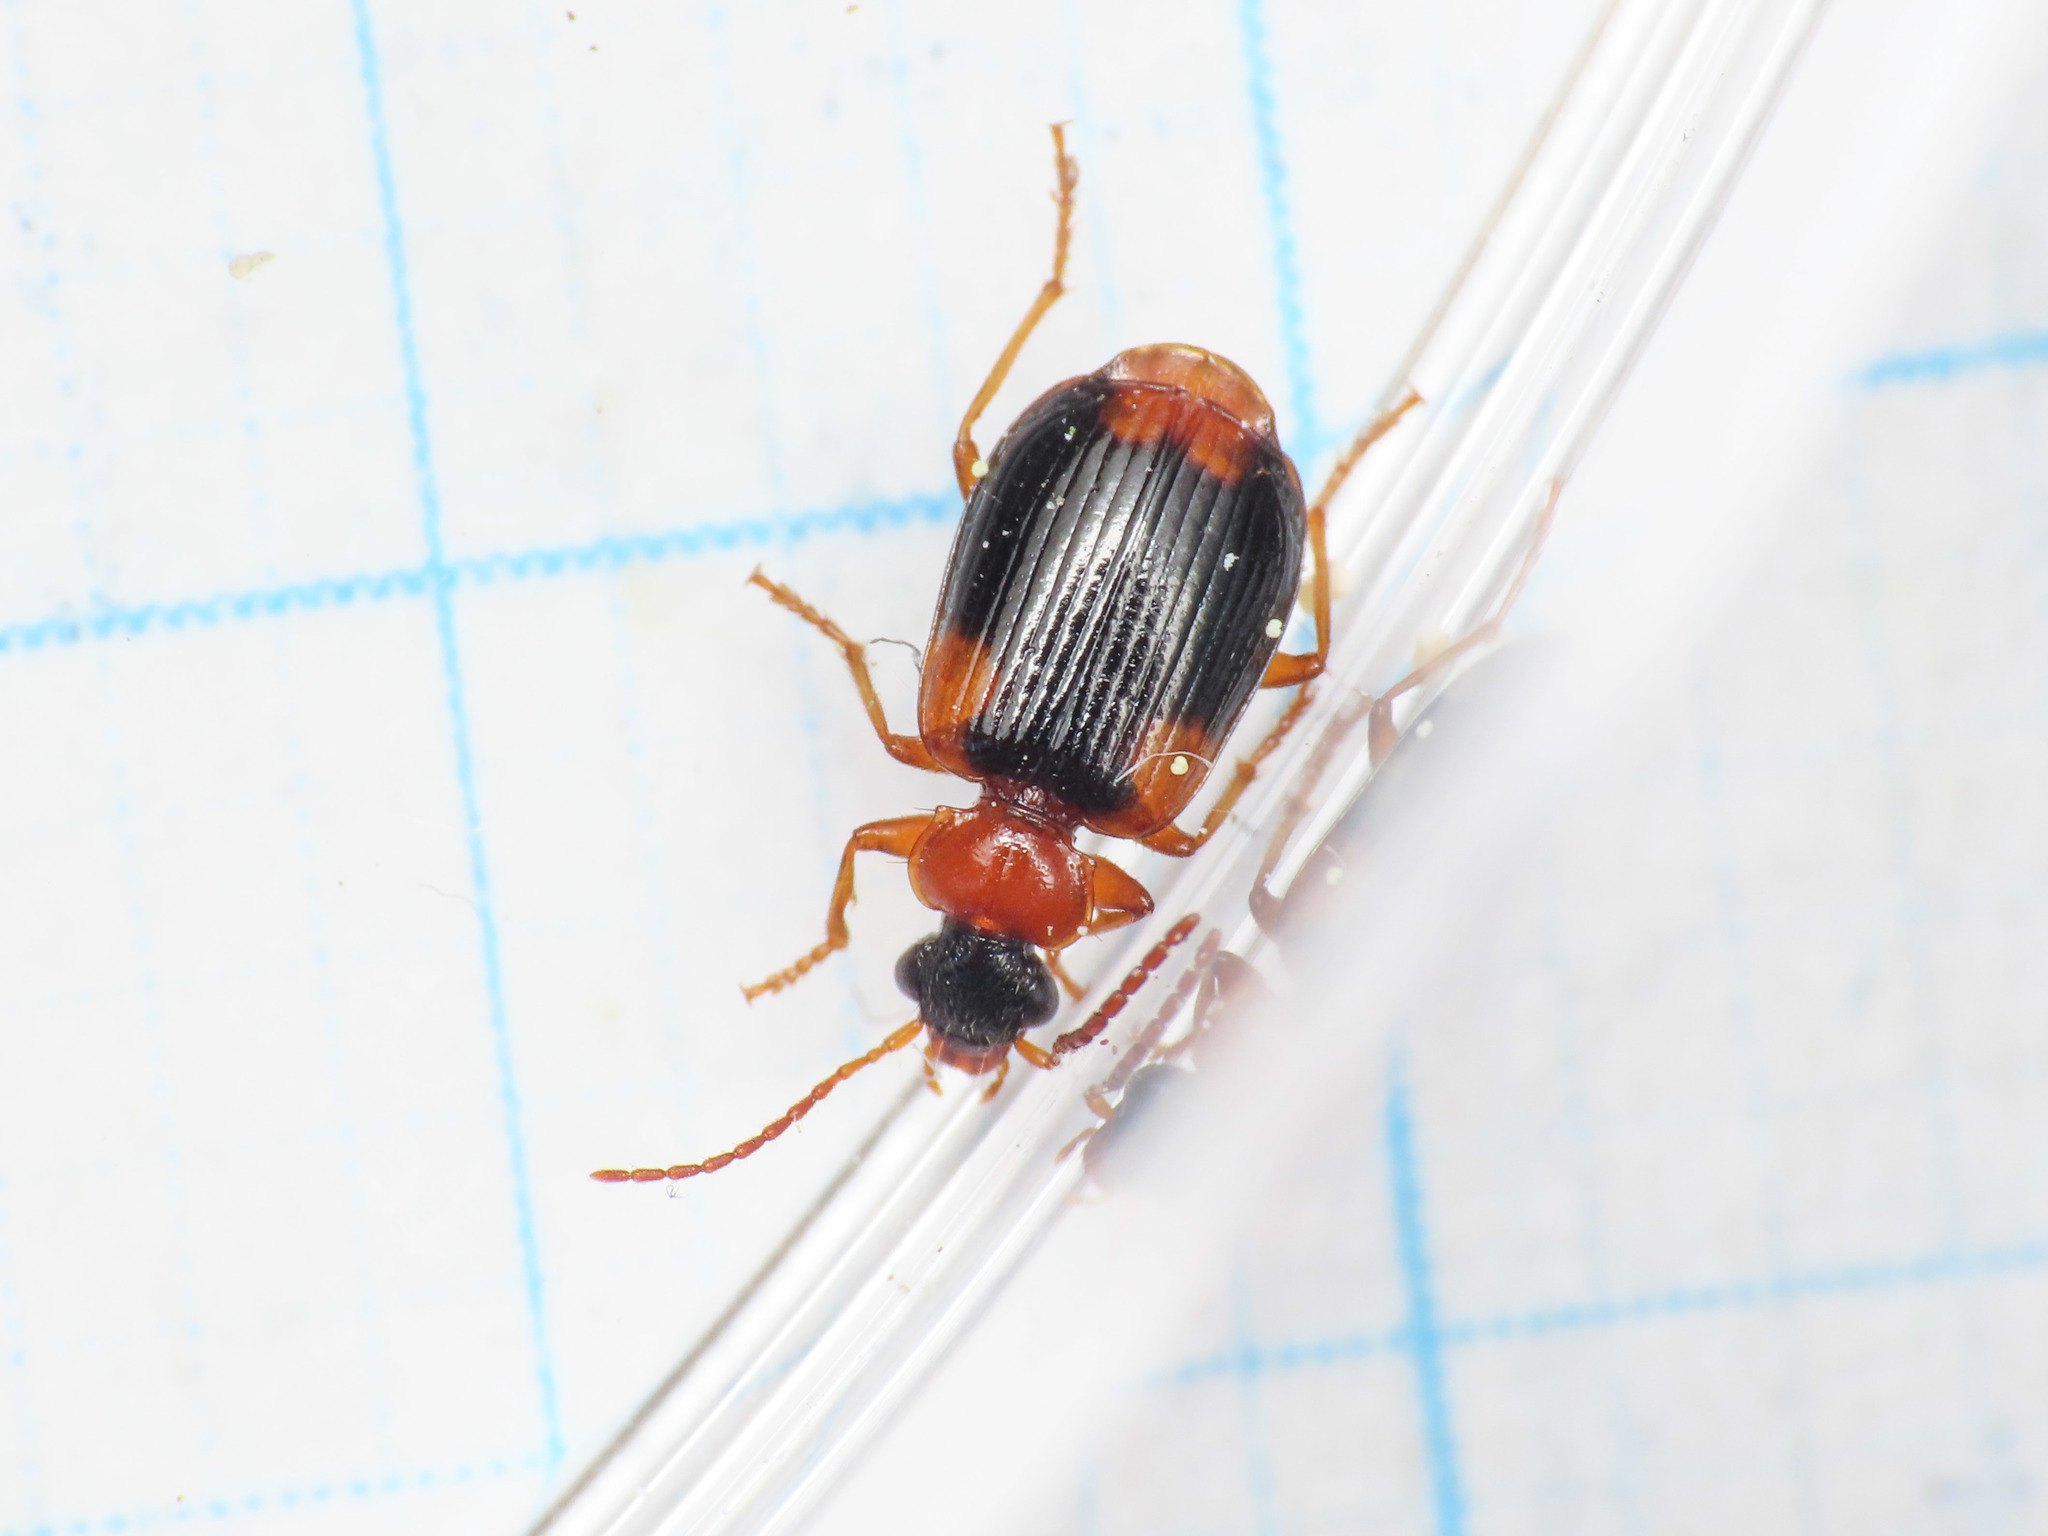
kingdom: Animalia
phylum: Arthropoda
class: Insecta
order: Coleoptera
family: Carabidae
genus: Lebia
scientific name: Lebia humeralis
